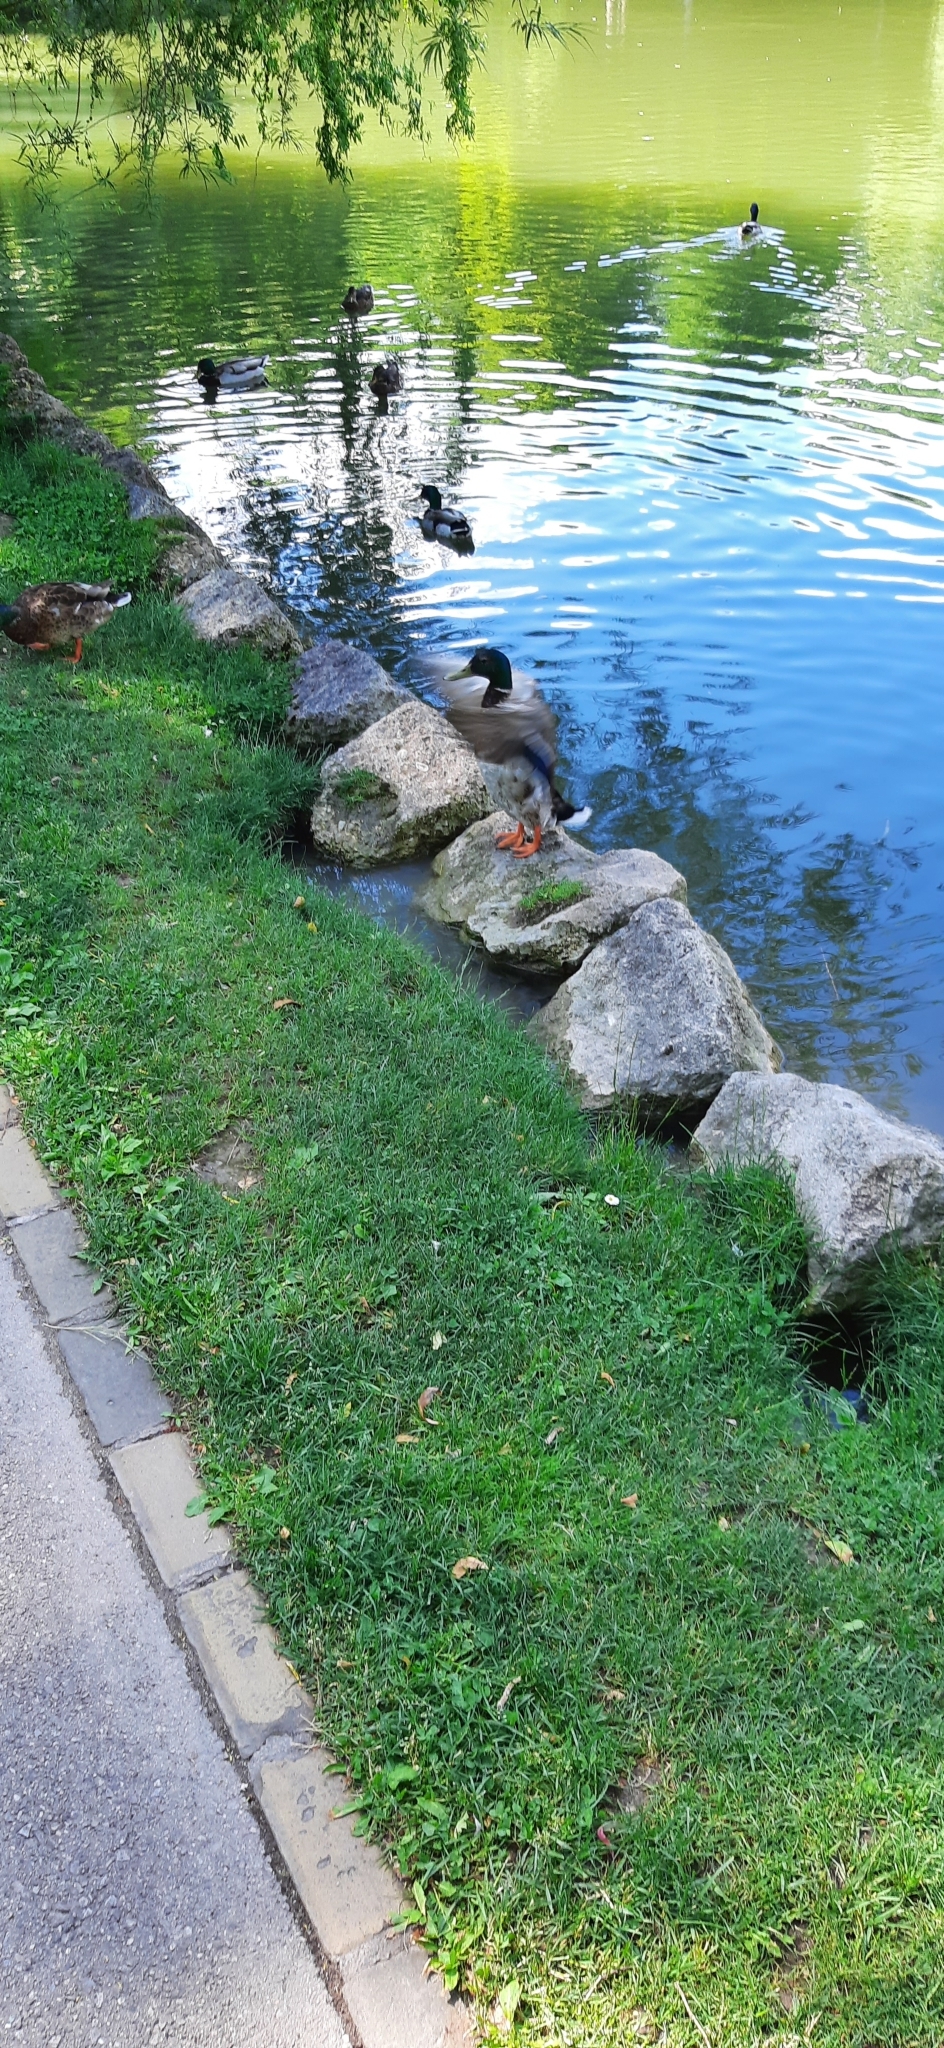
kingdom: Animalia
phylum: Chordata
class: Aves
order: Anseriformes
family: Anatidae
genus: Anas
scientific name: Anas platyrhynchos
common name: Mallard
